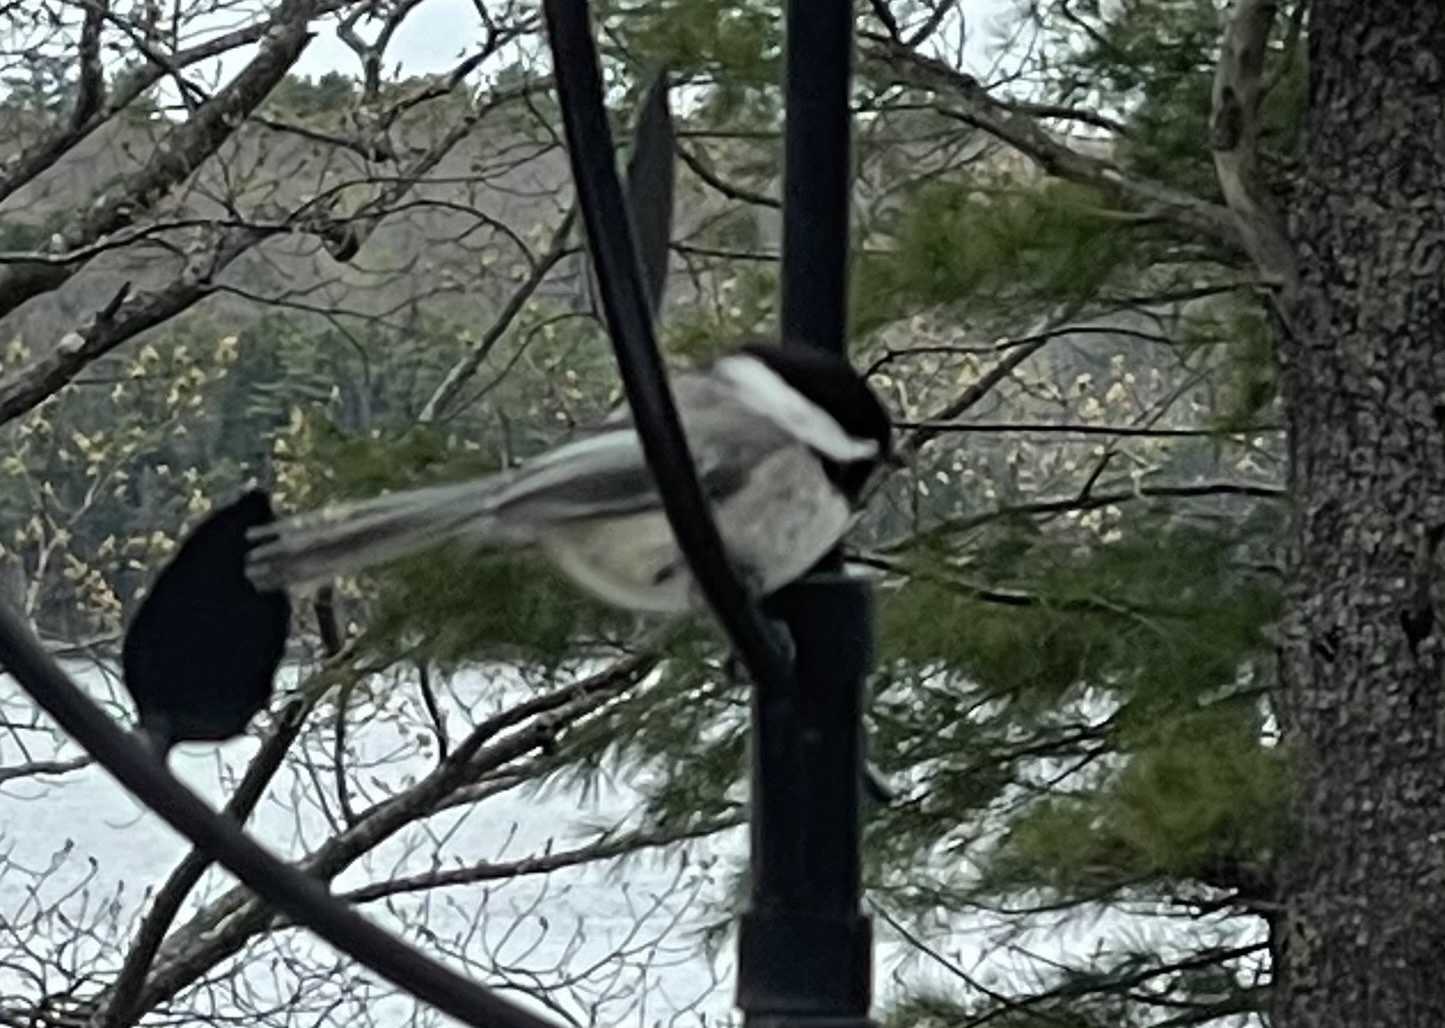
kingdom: Animalia
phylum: Chordata
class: Aves
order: Passeriformes
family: Paridae
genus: Poecile
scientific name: Poecile atricapillus
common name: Black-capped chickadee
